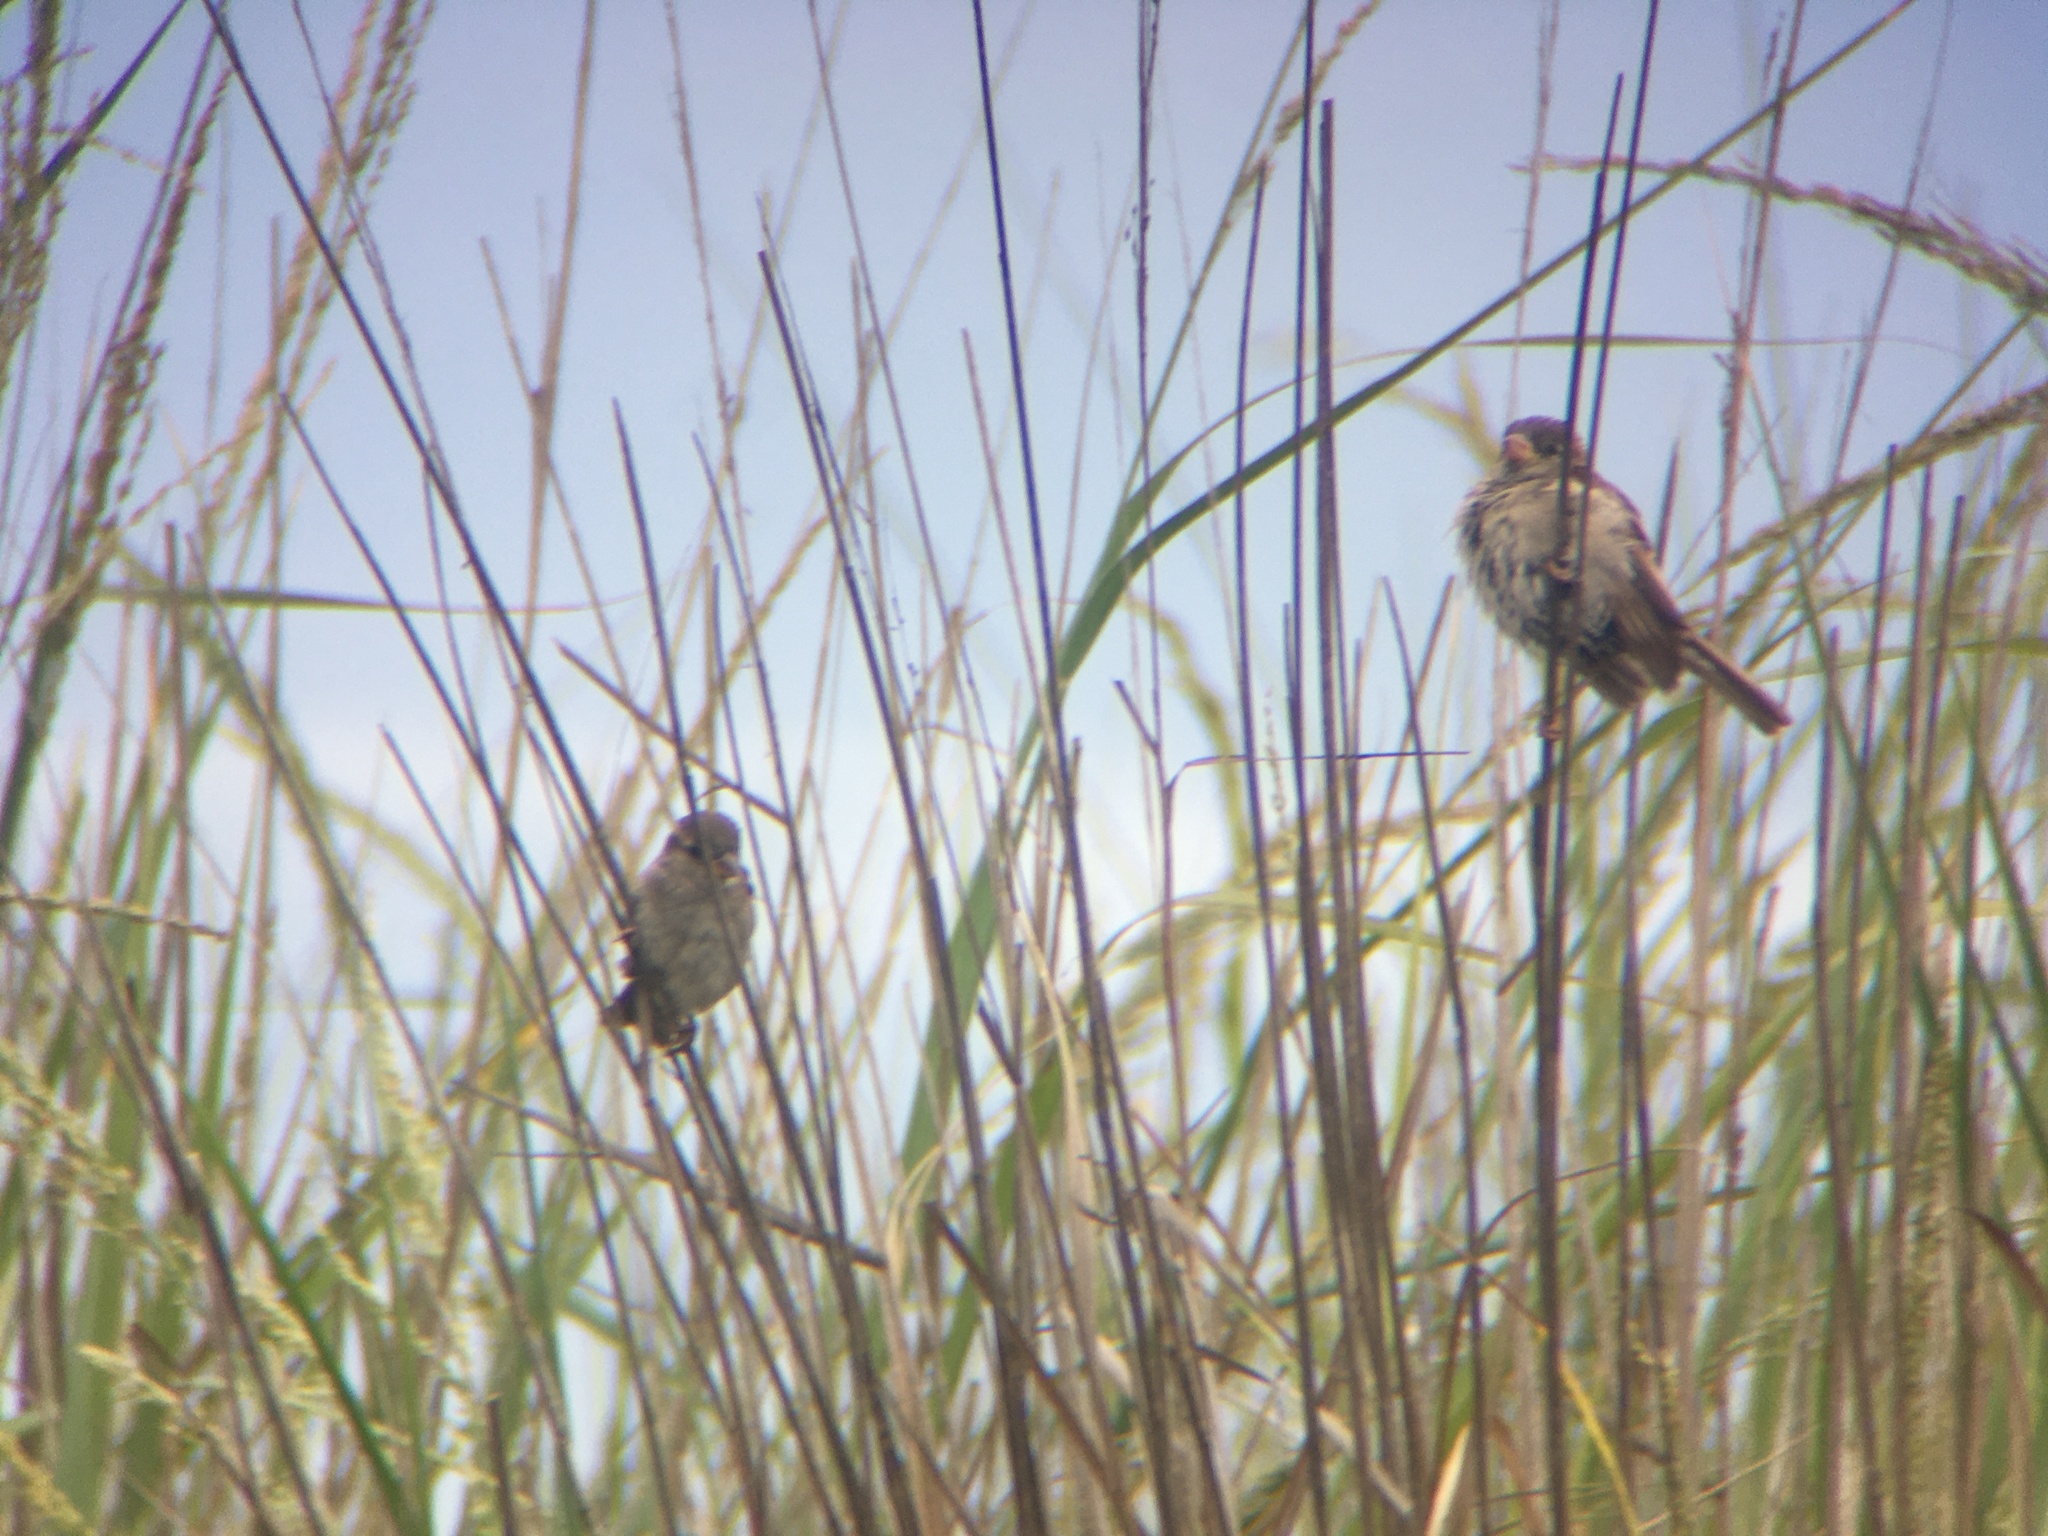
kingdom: Animalia
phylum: Chordata
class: Aves
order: Passeriformes
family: Passeridae
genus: Passer
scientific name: Passer domesticus
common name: House sparrow
